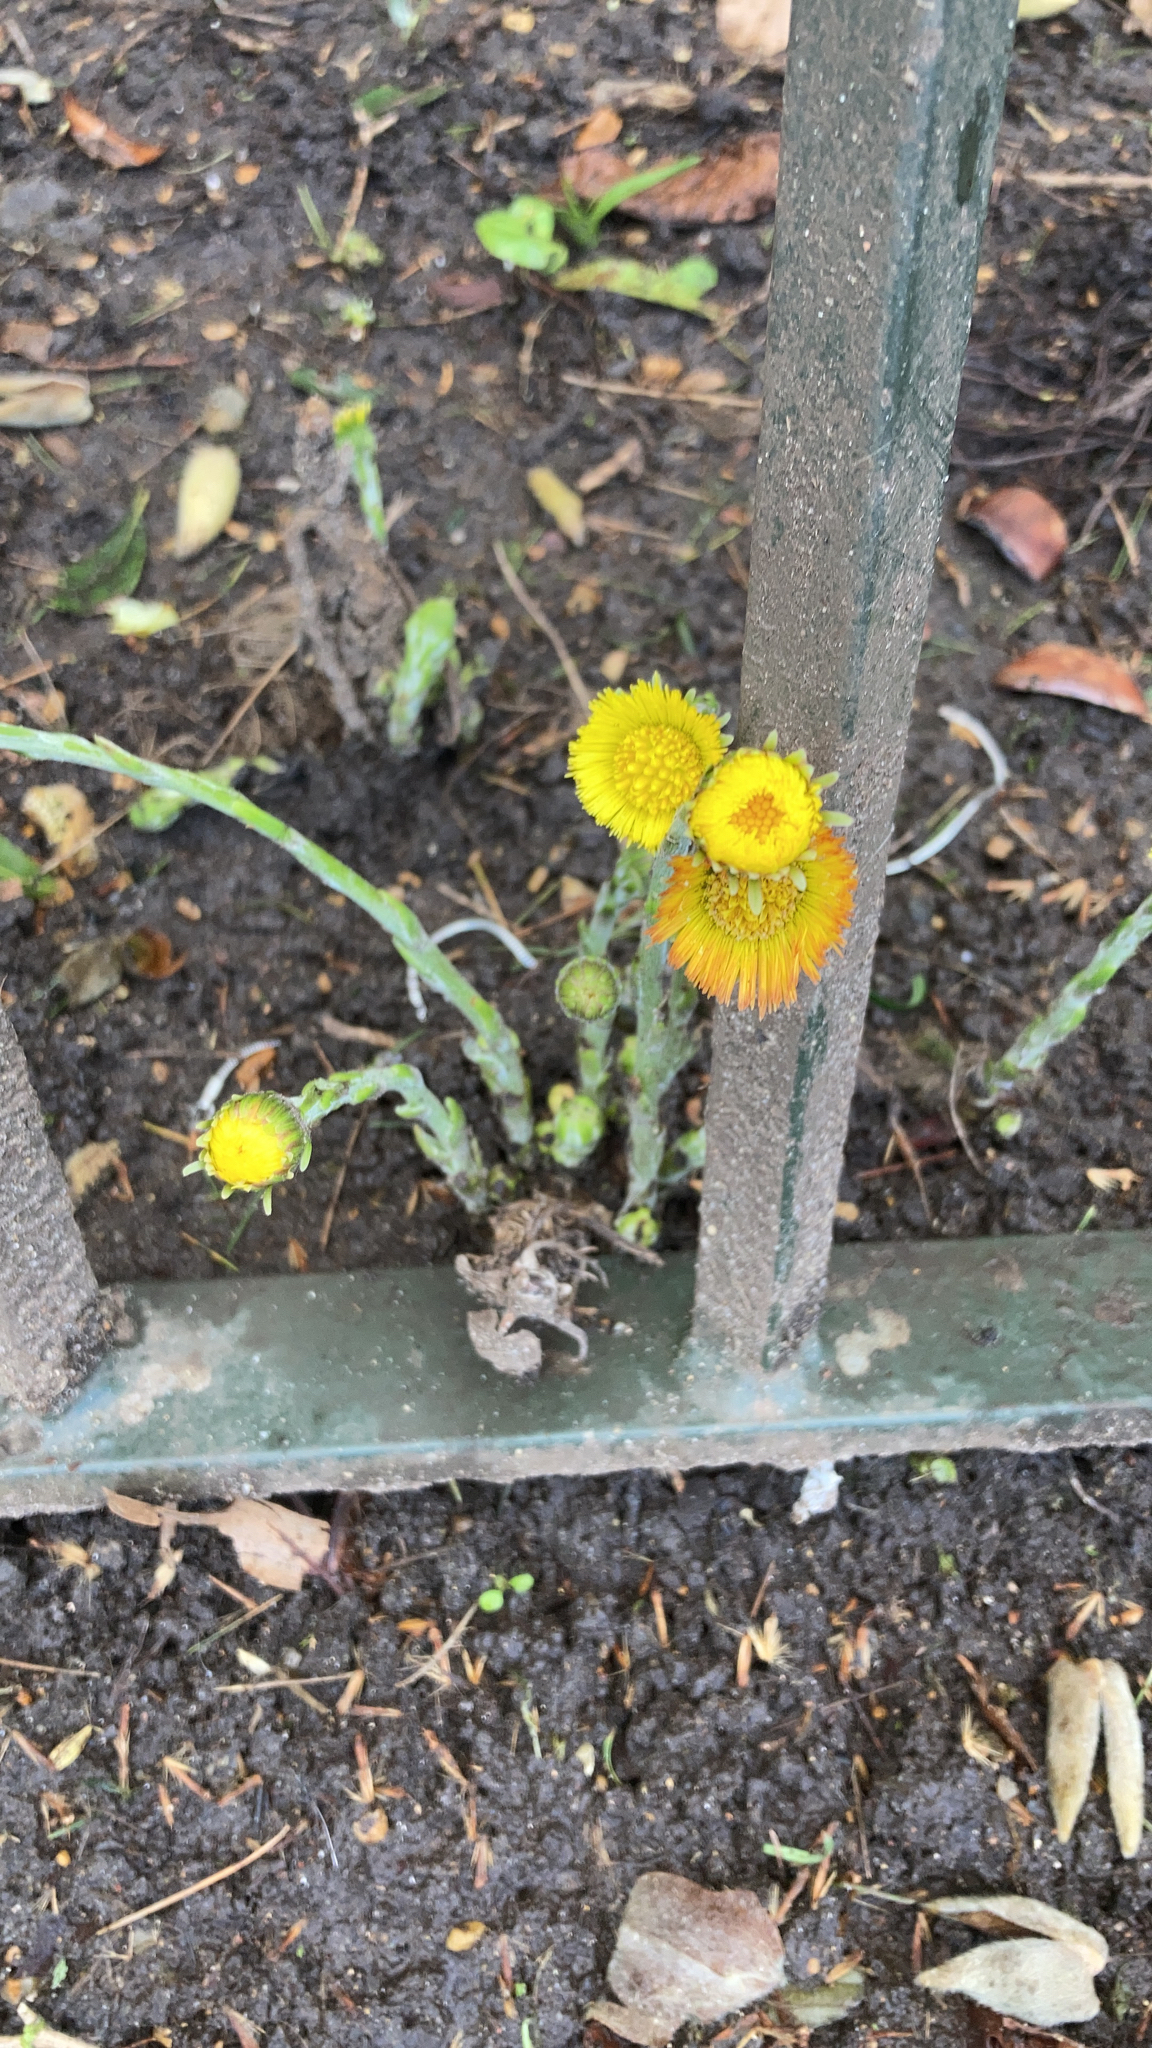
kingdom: Plantae
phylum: Tracheophyta
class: Magnoliopsida
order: Asterales
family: Asteraceae
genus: Tussilago
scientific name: Tussilago farfara
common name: Coltsfoot
